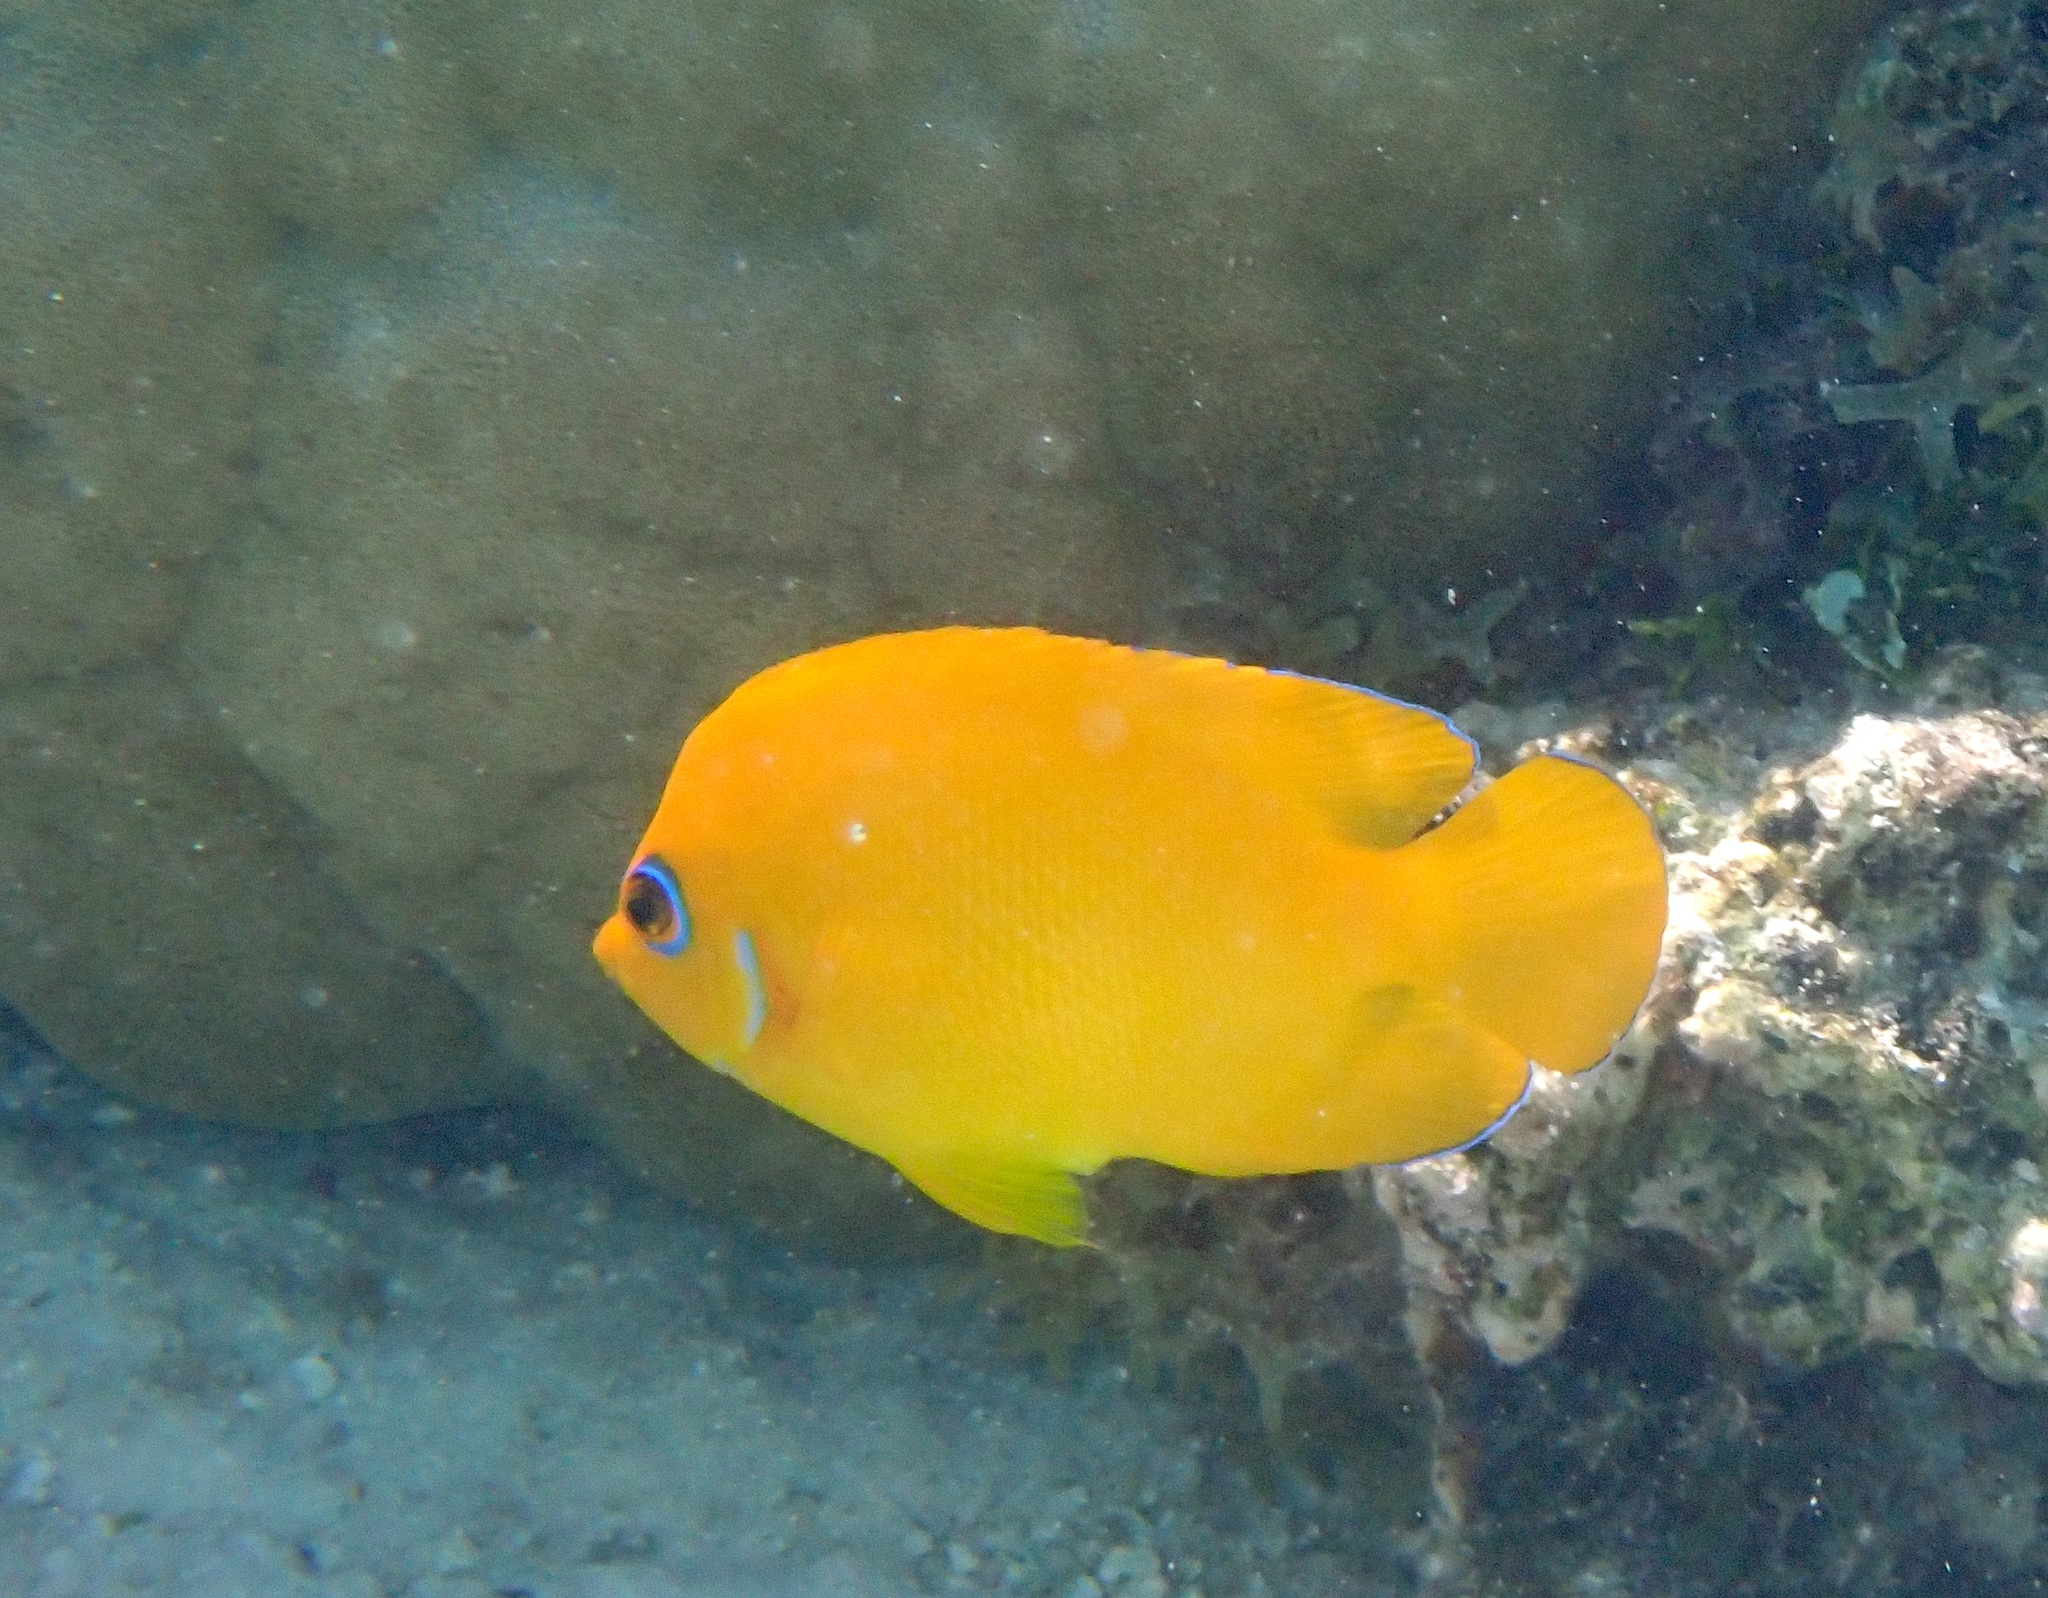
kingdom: Animalia
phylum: Chordata
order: Perciformes
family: Pomacanthidae
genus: Centropyge
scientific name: Centropyge flavissima
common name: Lemonpeel angelfish
